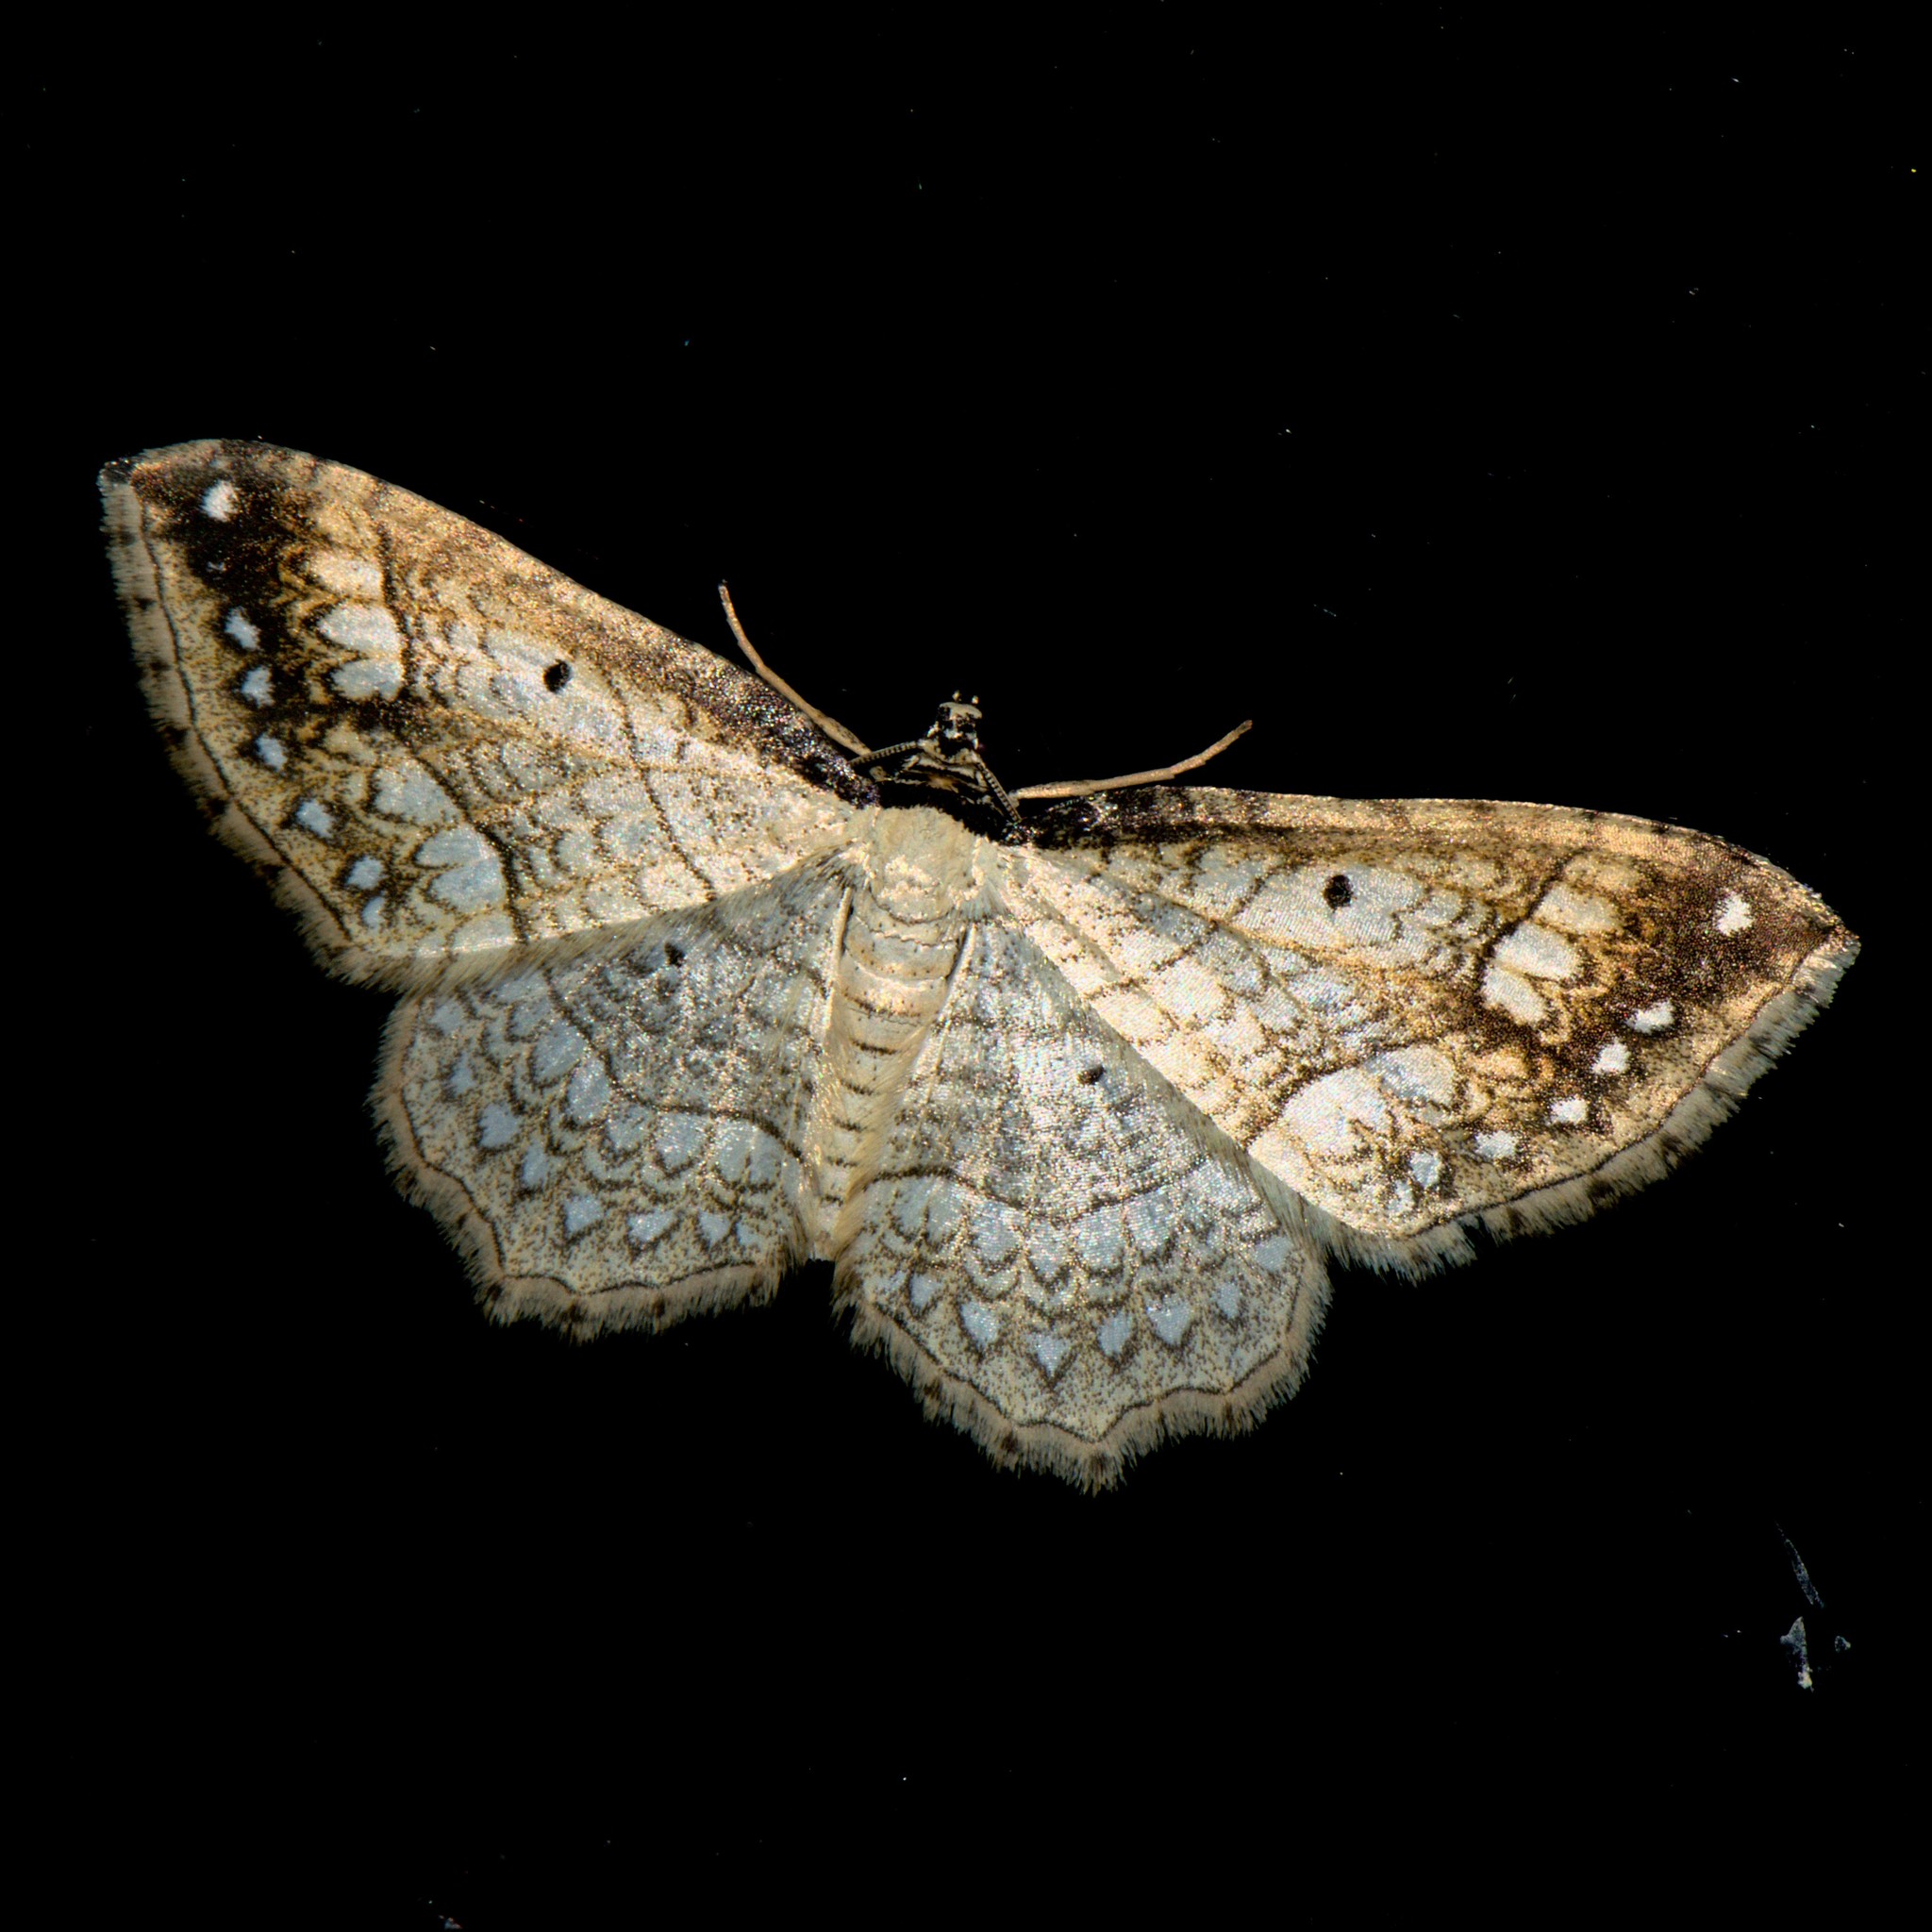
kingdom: Animalia
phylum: Arthropoda
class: Insecta
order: Lepidoptera
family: Geometridae
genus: Laciniodes
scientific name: Laciniodes plurilinearia
